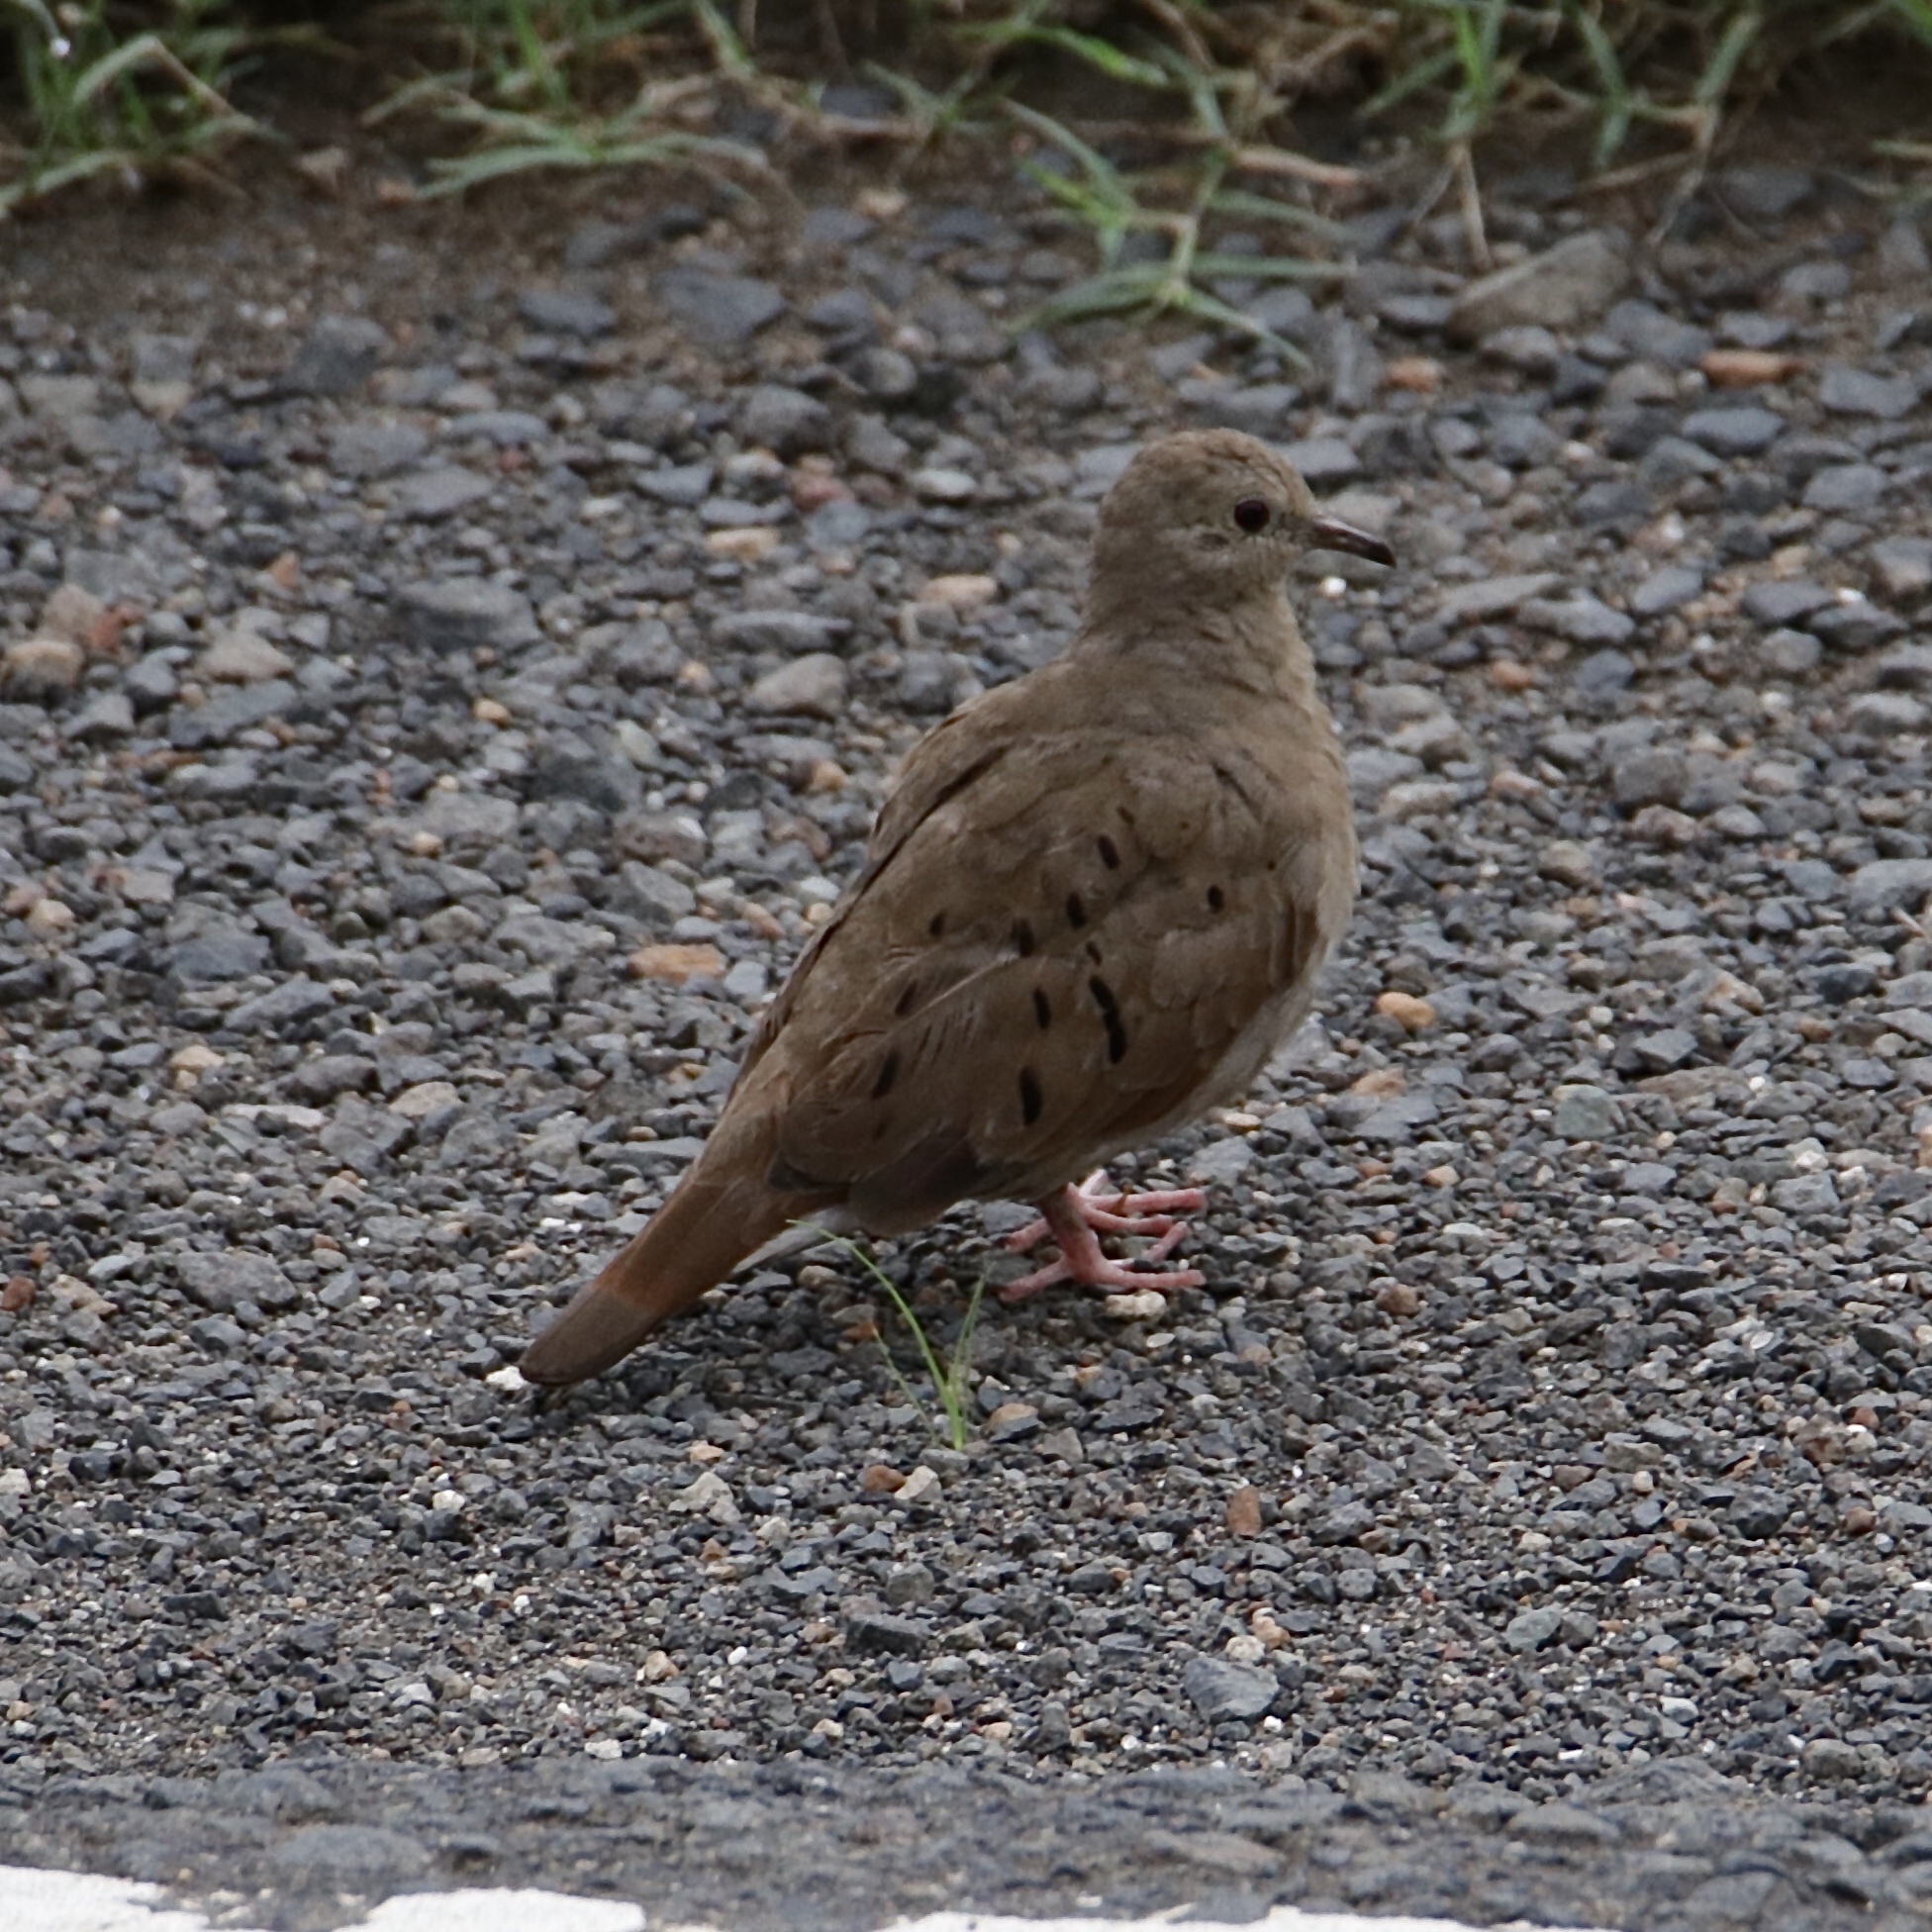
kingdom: Animalia
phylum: Chordata
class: Aves
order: Columbiformes
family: Columbidae
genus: Columbina
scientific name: Columbina talpacoti
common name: Ruddy ground dove
